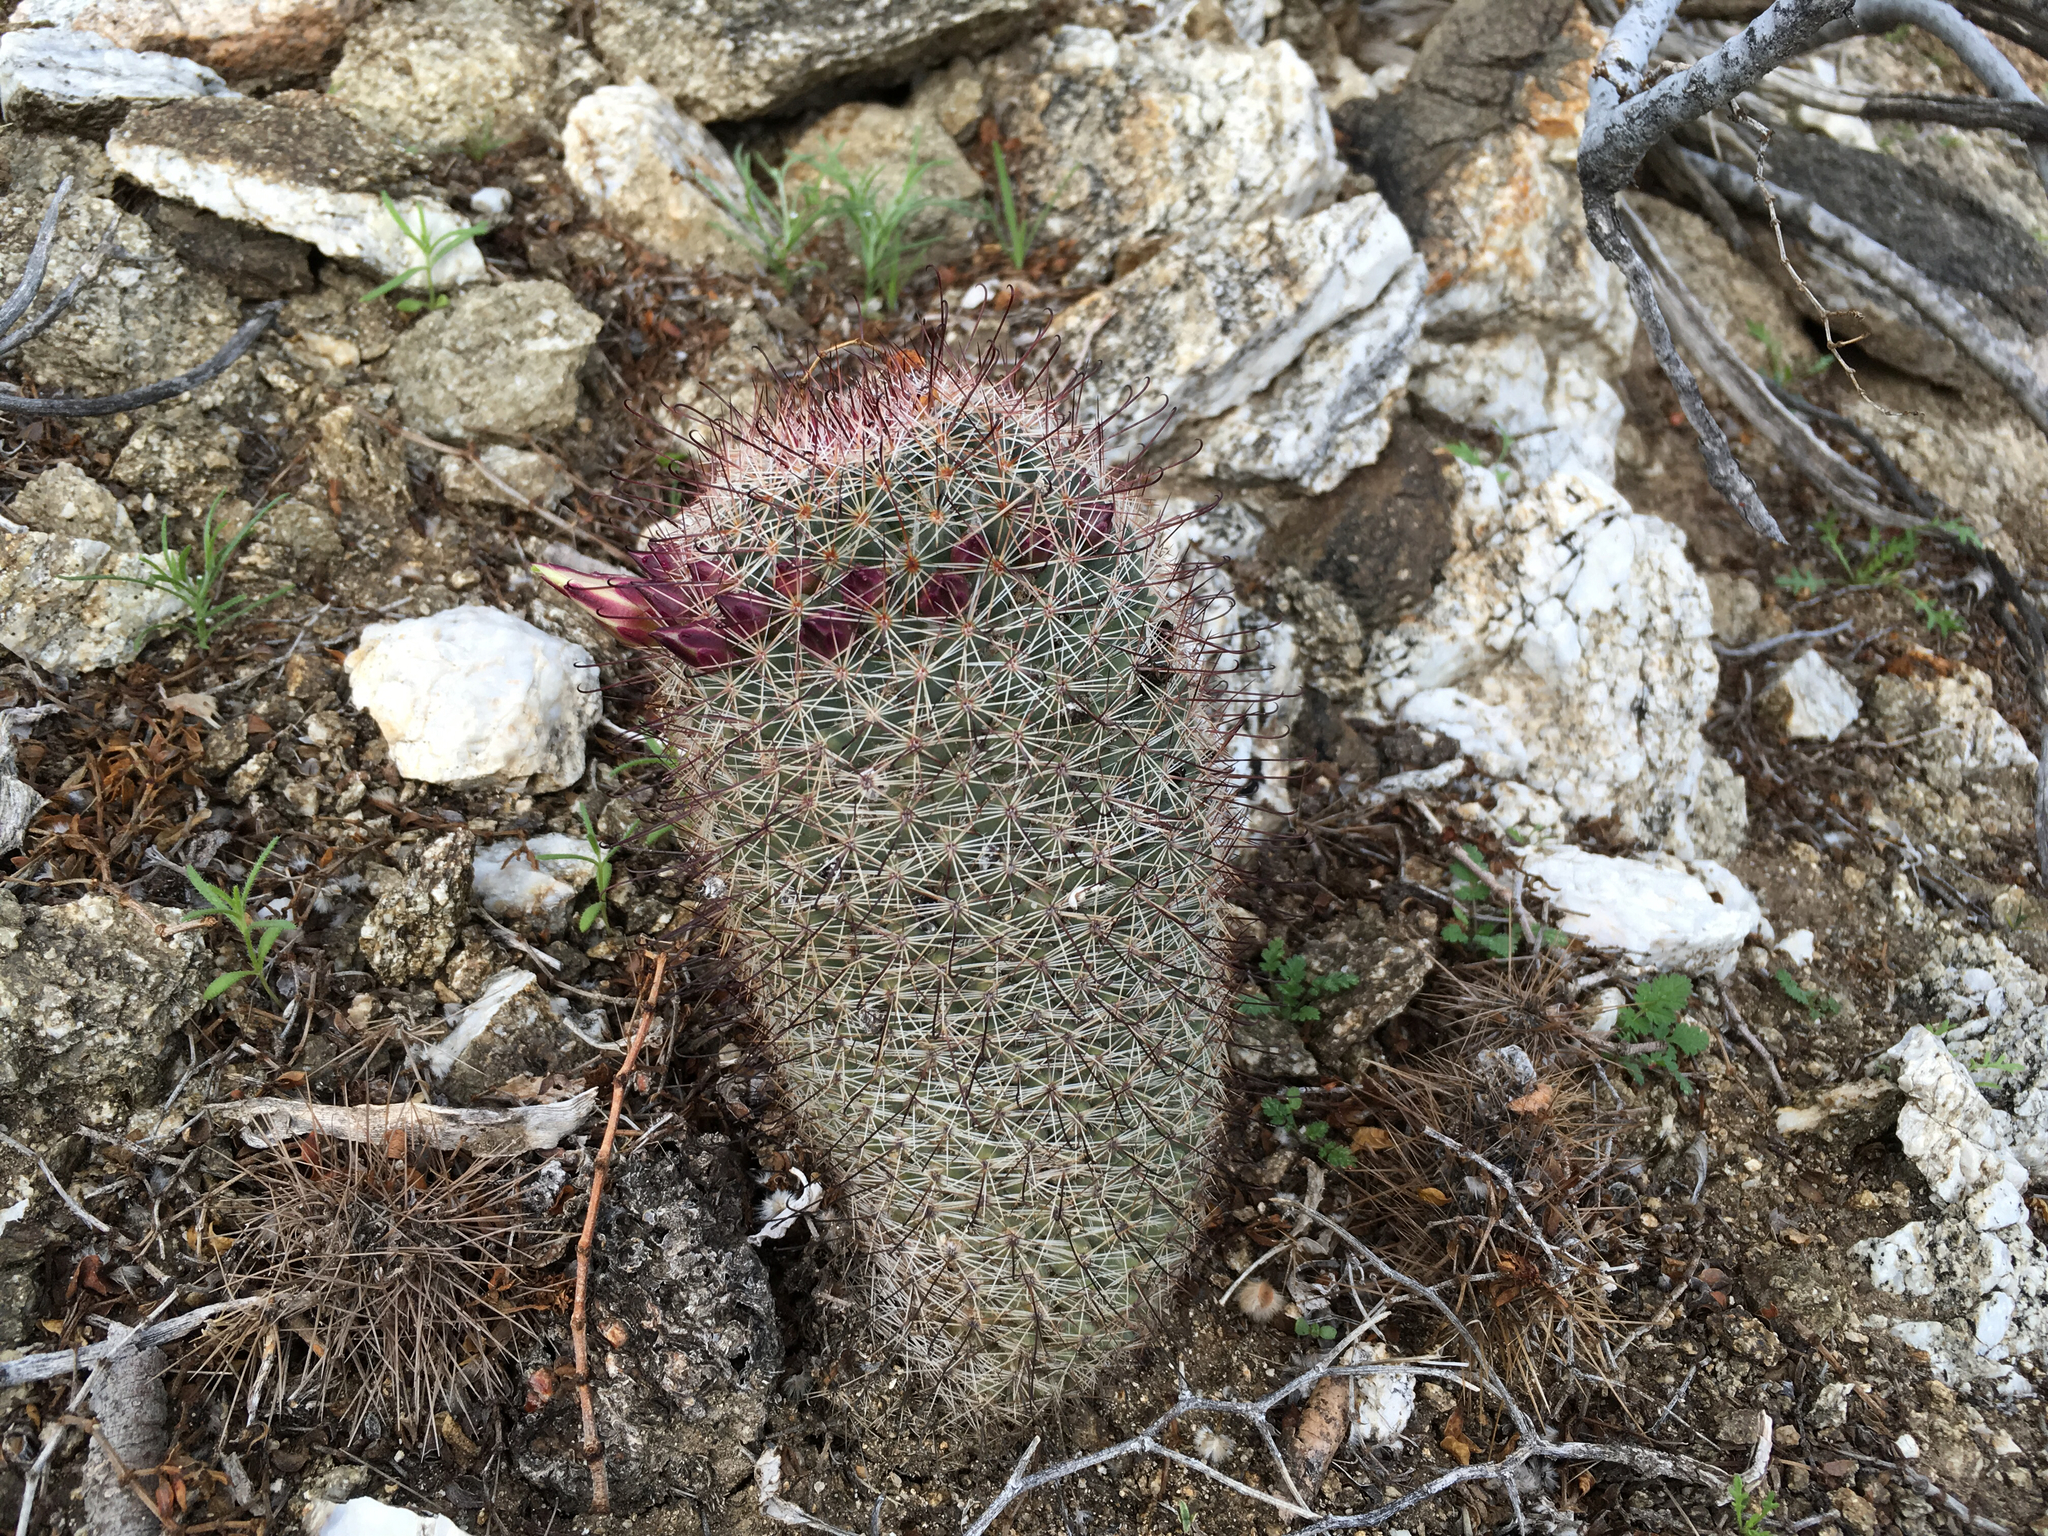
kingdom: Plantae
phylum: Tracheophyta
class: Magnoliopsida
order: Caryophyllales
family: Cactaceae
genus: Cochemiea
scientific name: Cochemiea dioica
